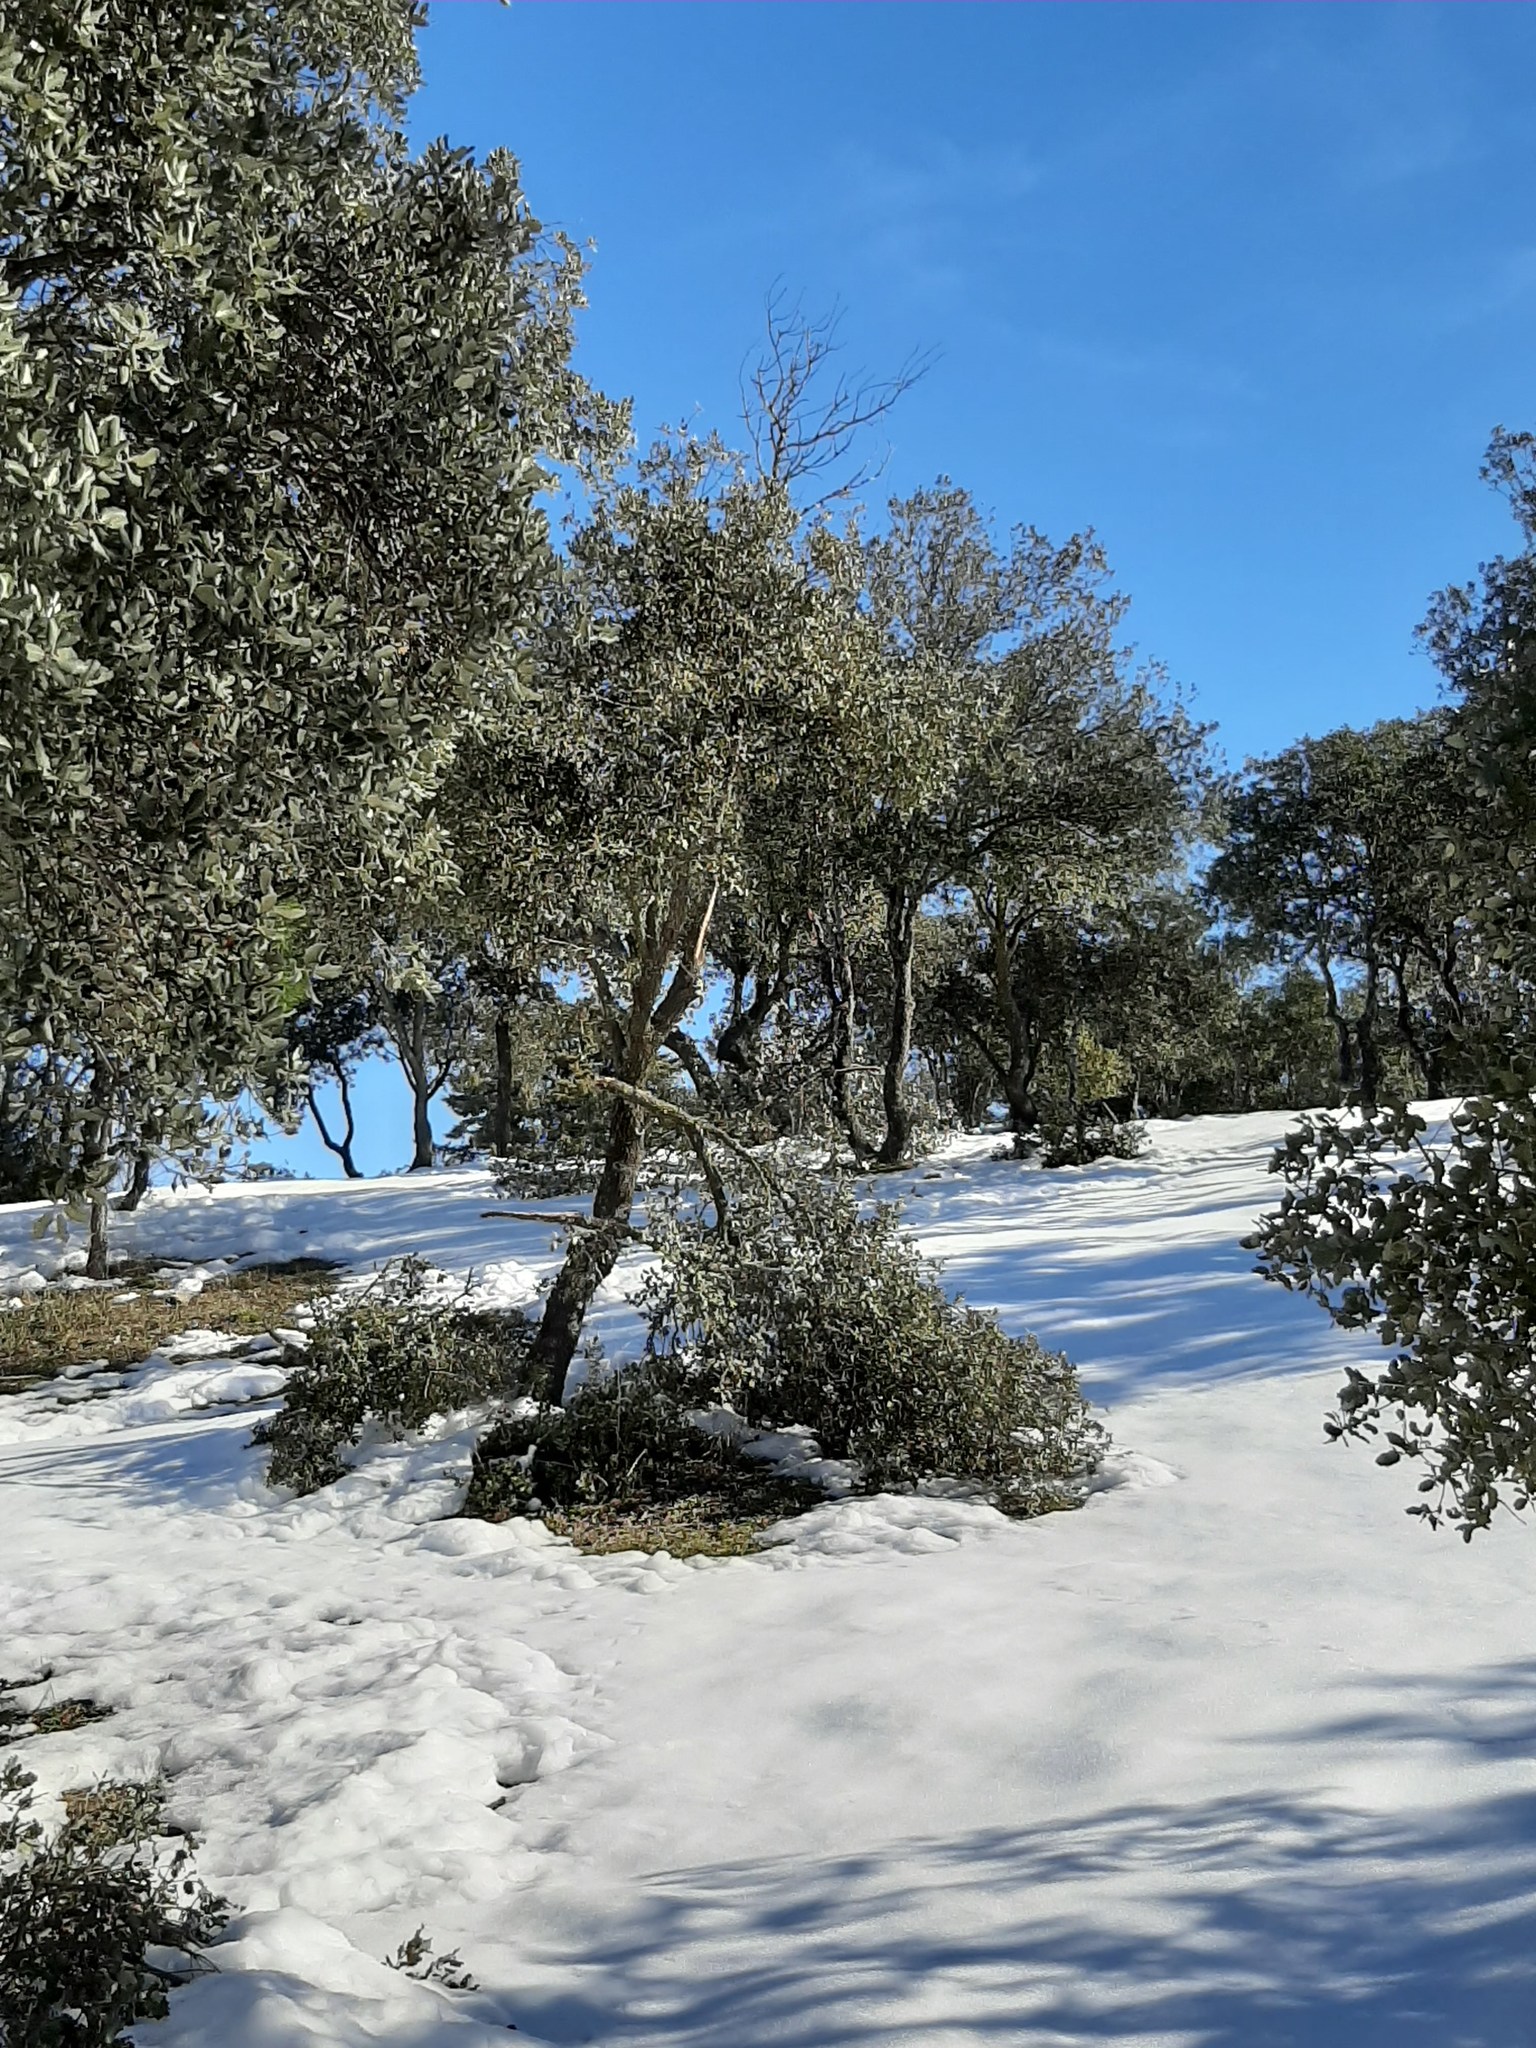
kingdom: Plantae
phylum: Tracheophyta
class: Magnoliopsida
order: Fagales
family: Fagaceae
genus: Quercus
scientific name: Quercus rotundifolia
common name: Holm oak
